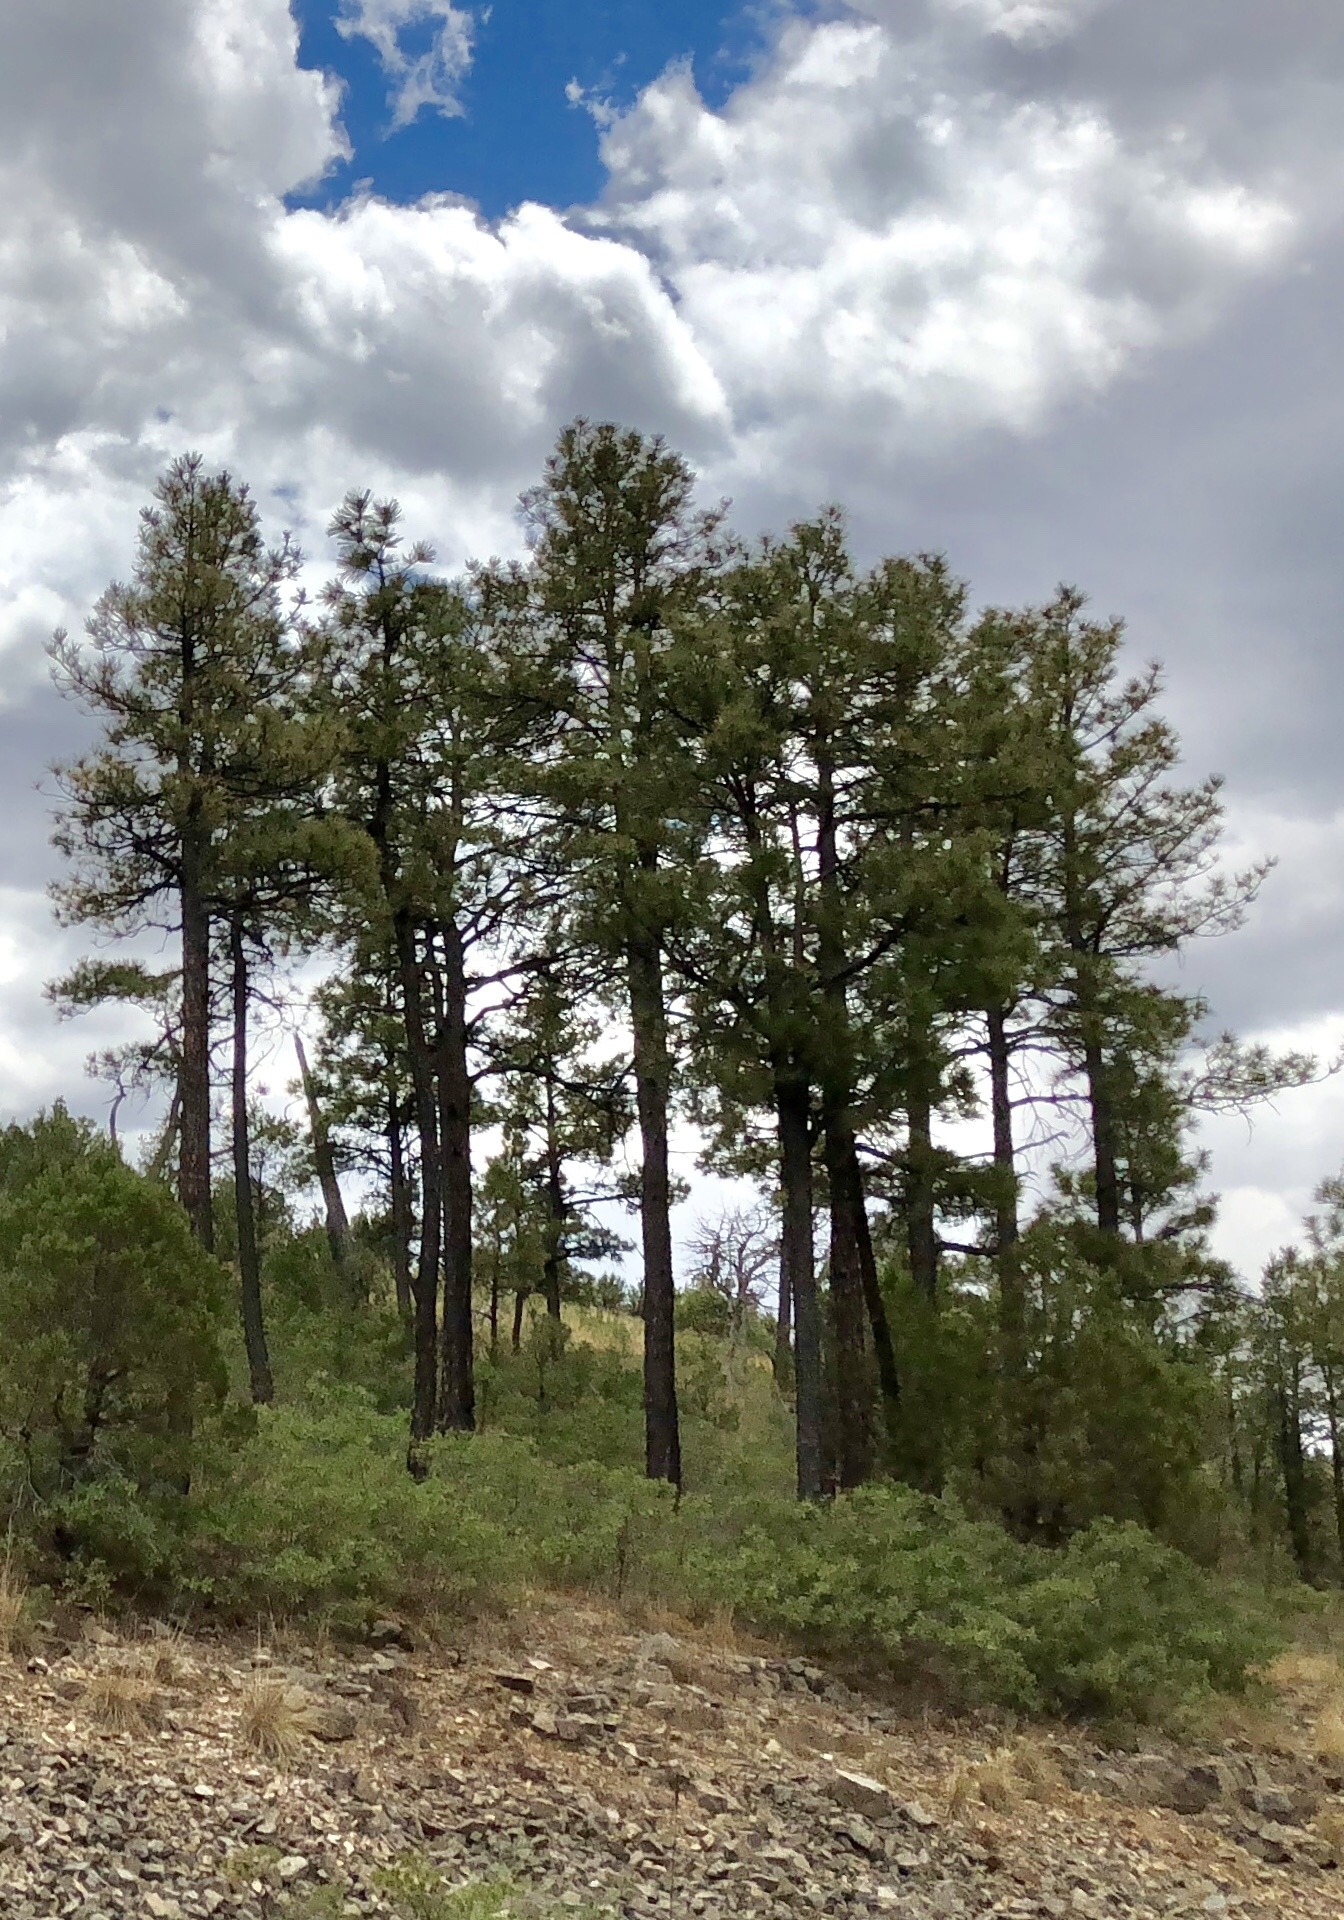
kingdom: Plantae
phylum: Tracheophyta
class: Pinopsida
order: Pinales
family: Pinaceae
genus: Pinus
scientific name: Pinus ponderosa
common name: Western yellow-pine
